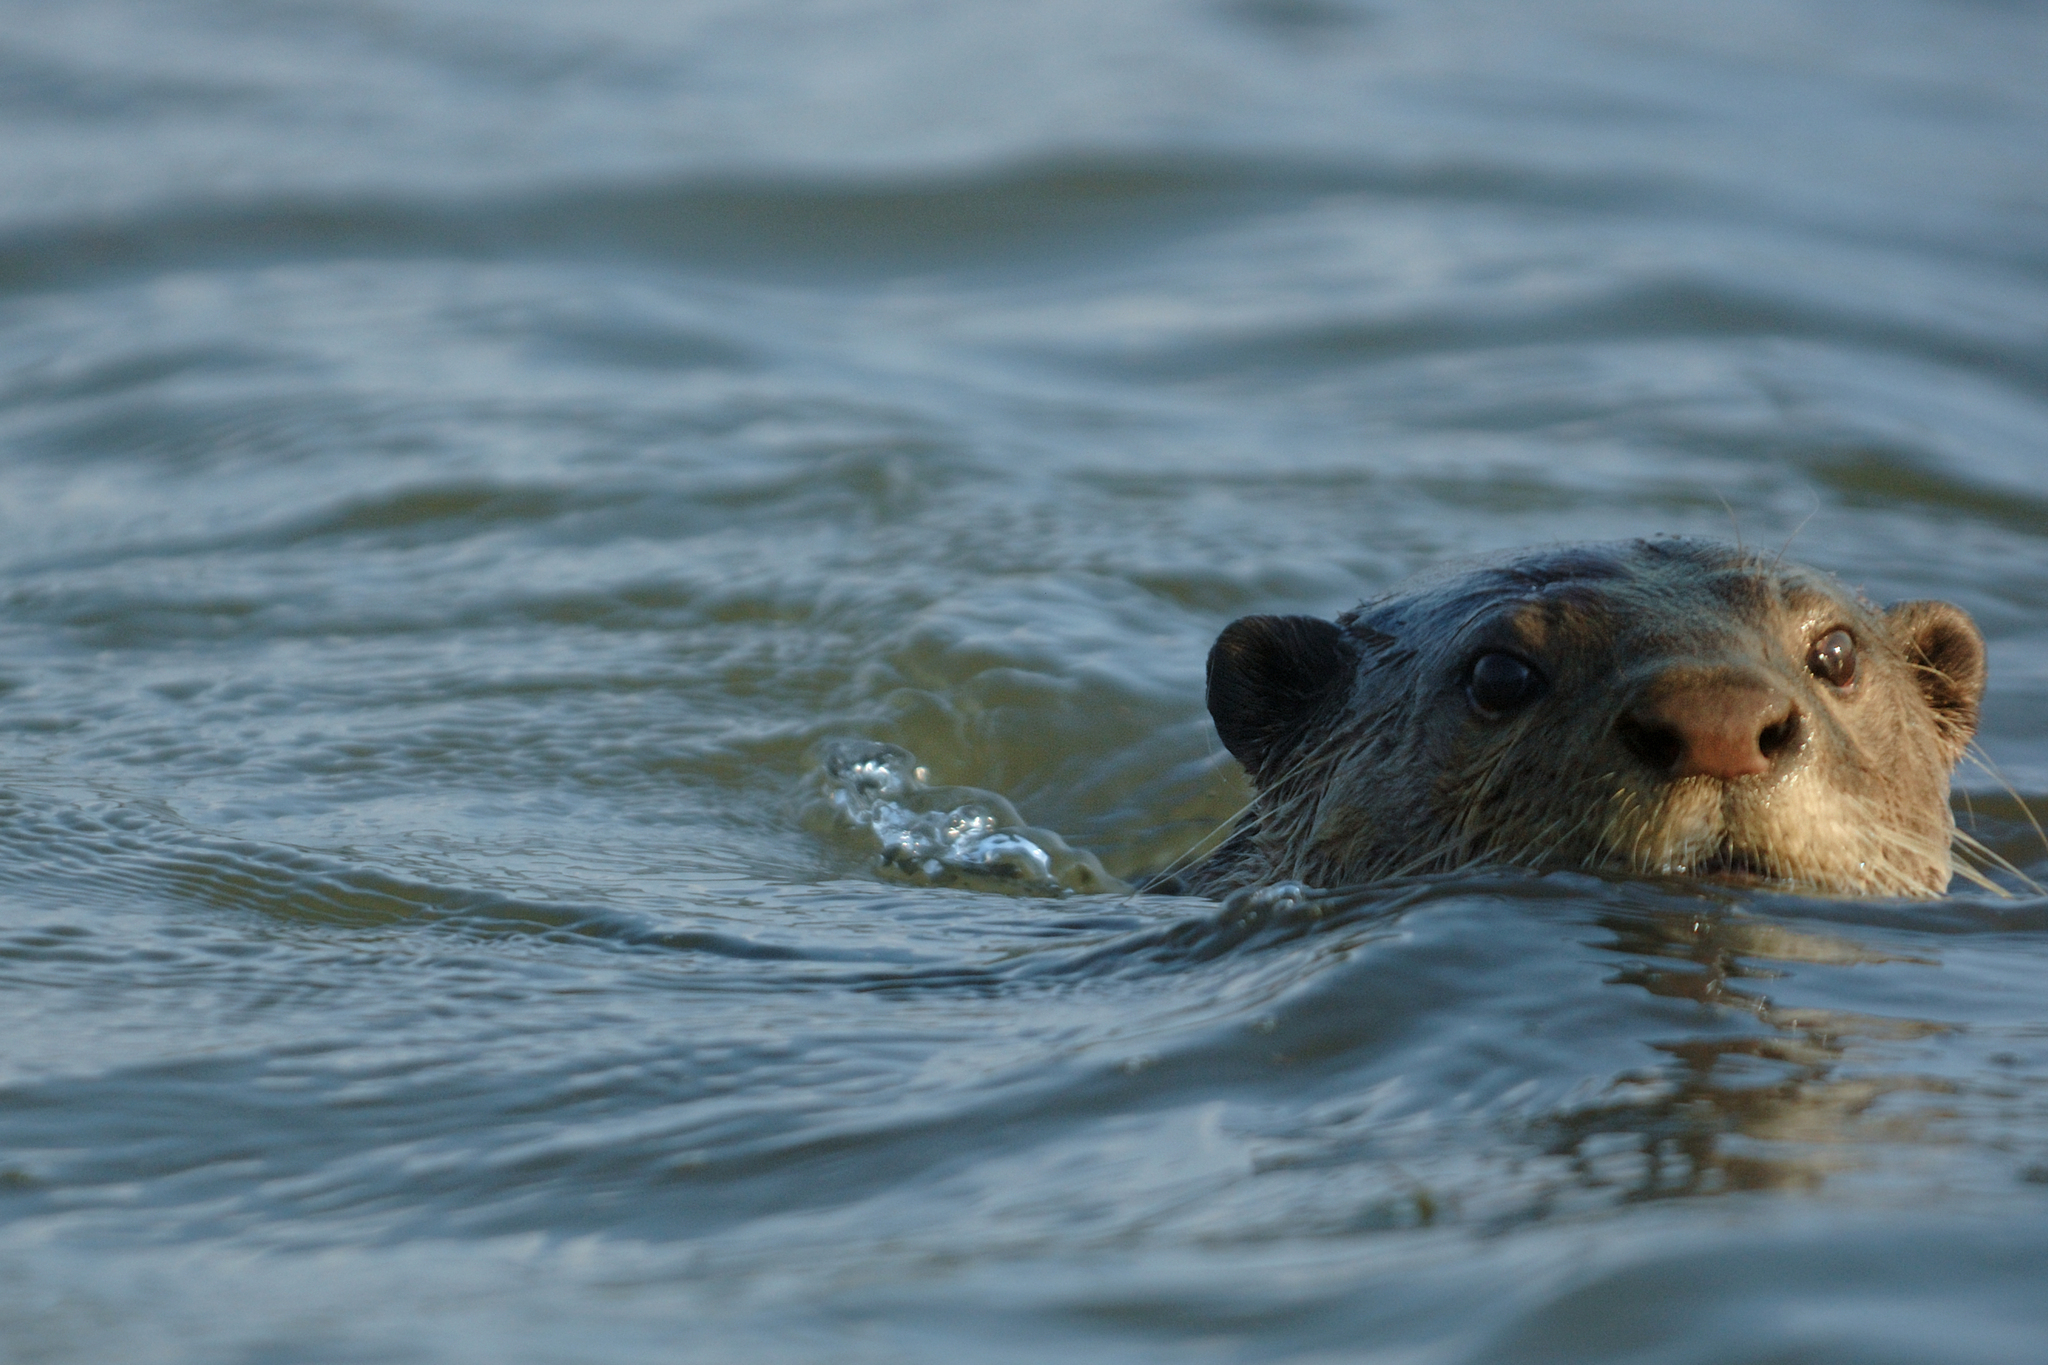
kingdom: Animalia
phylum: Chordata
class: Mammalia
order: Carnivora
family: Mustelidae
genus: Lutrogale
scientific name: Lutrogale perspicillata
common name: Smooth-coated otter
